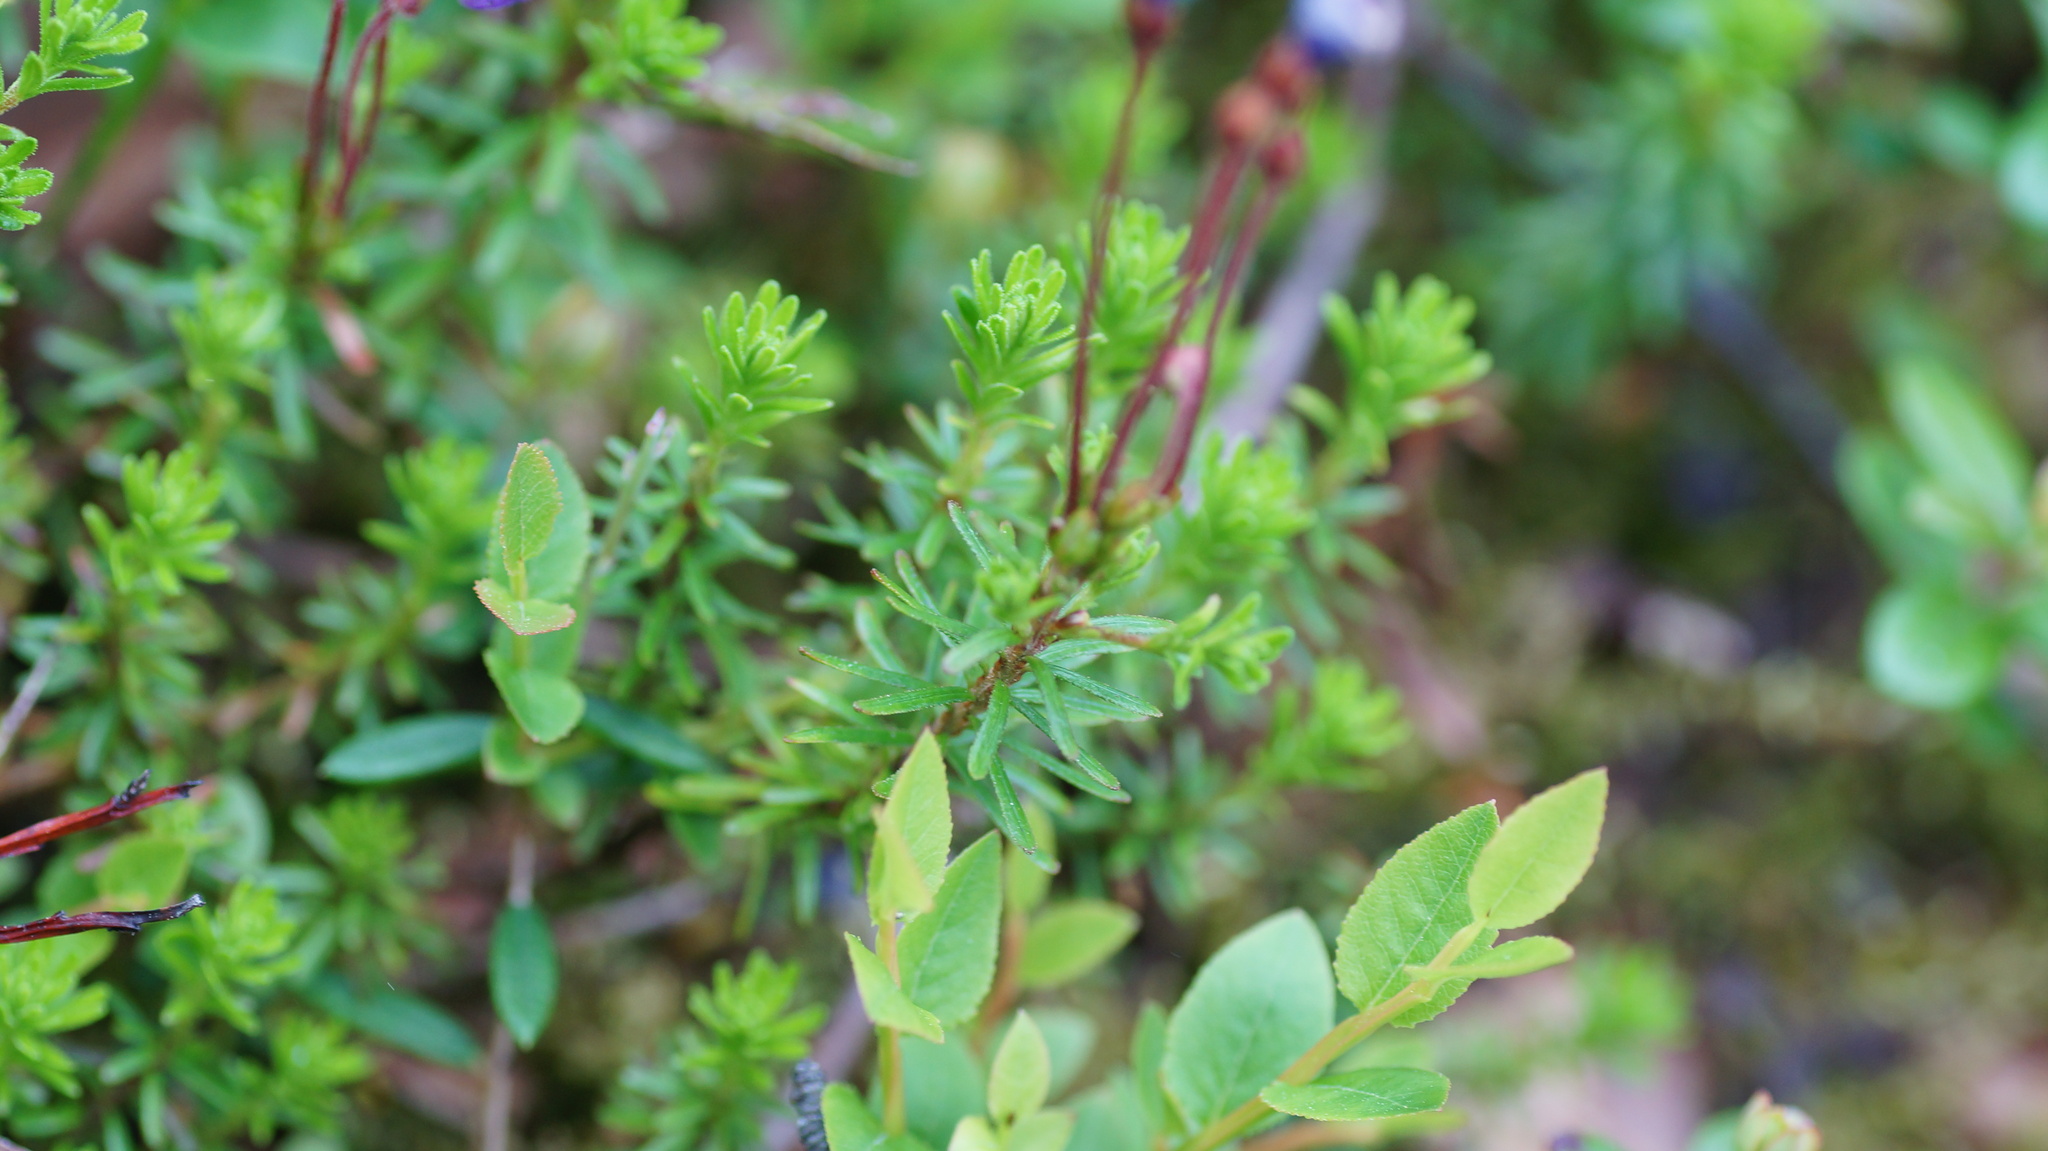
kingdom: Plantae
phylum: Tracheophyta
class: Magnoliopsida
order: Ericales
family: Ericaceae
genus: Phyllodoce
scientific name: Phyllodoce caerulea
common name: Blue heath
